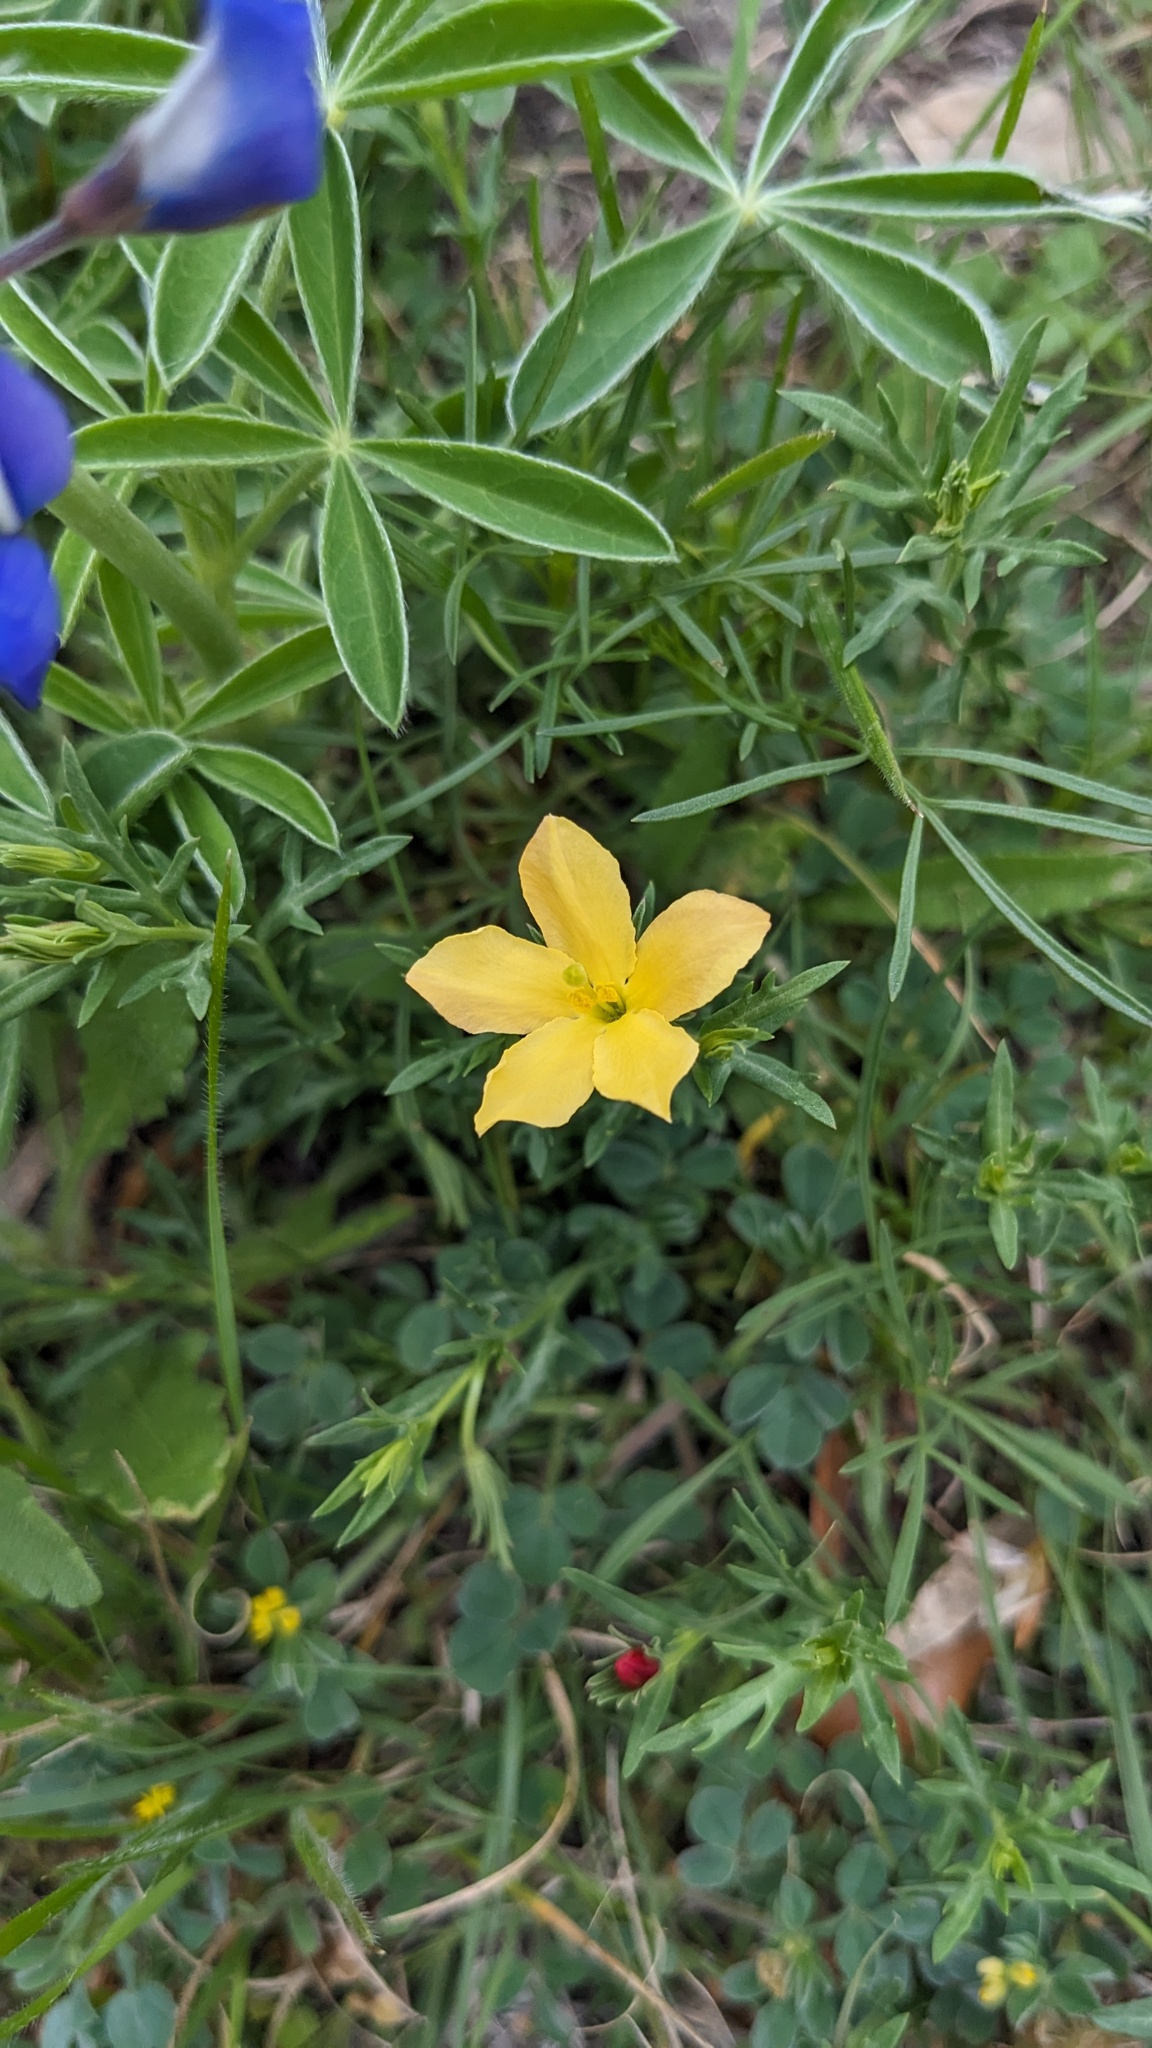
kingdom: Plantae
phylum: Tracheophyta
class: Magnoliopsida
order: Lamiales
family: Oleaceae
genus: Menodora
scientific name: Menodora heterophylla
